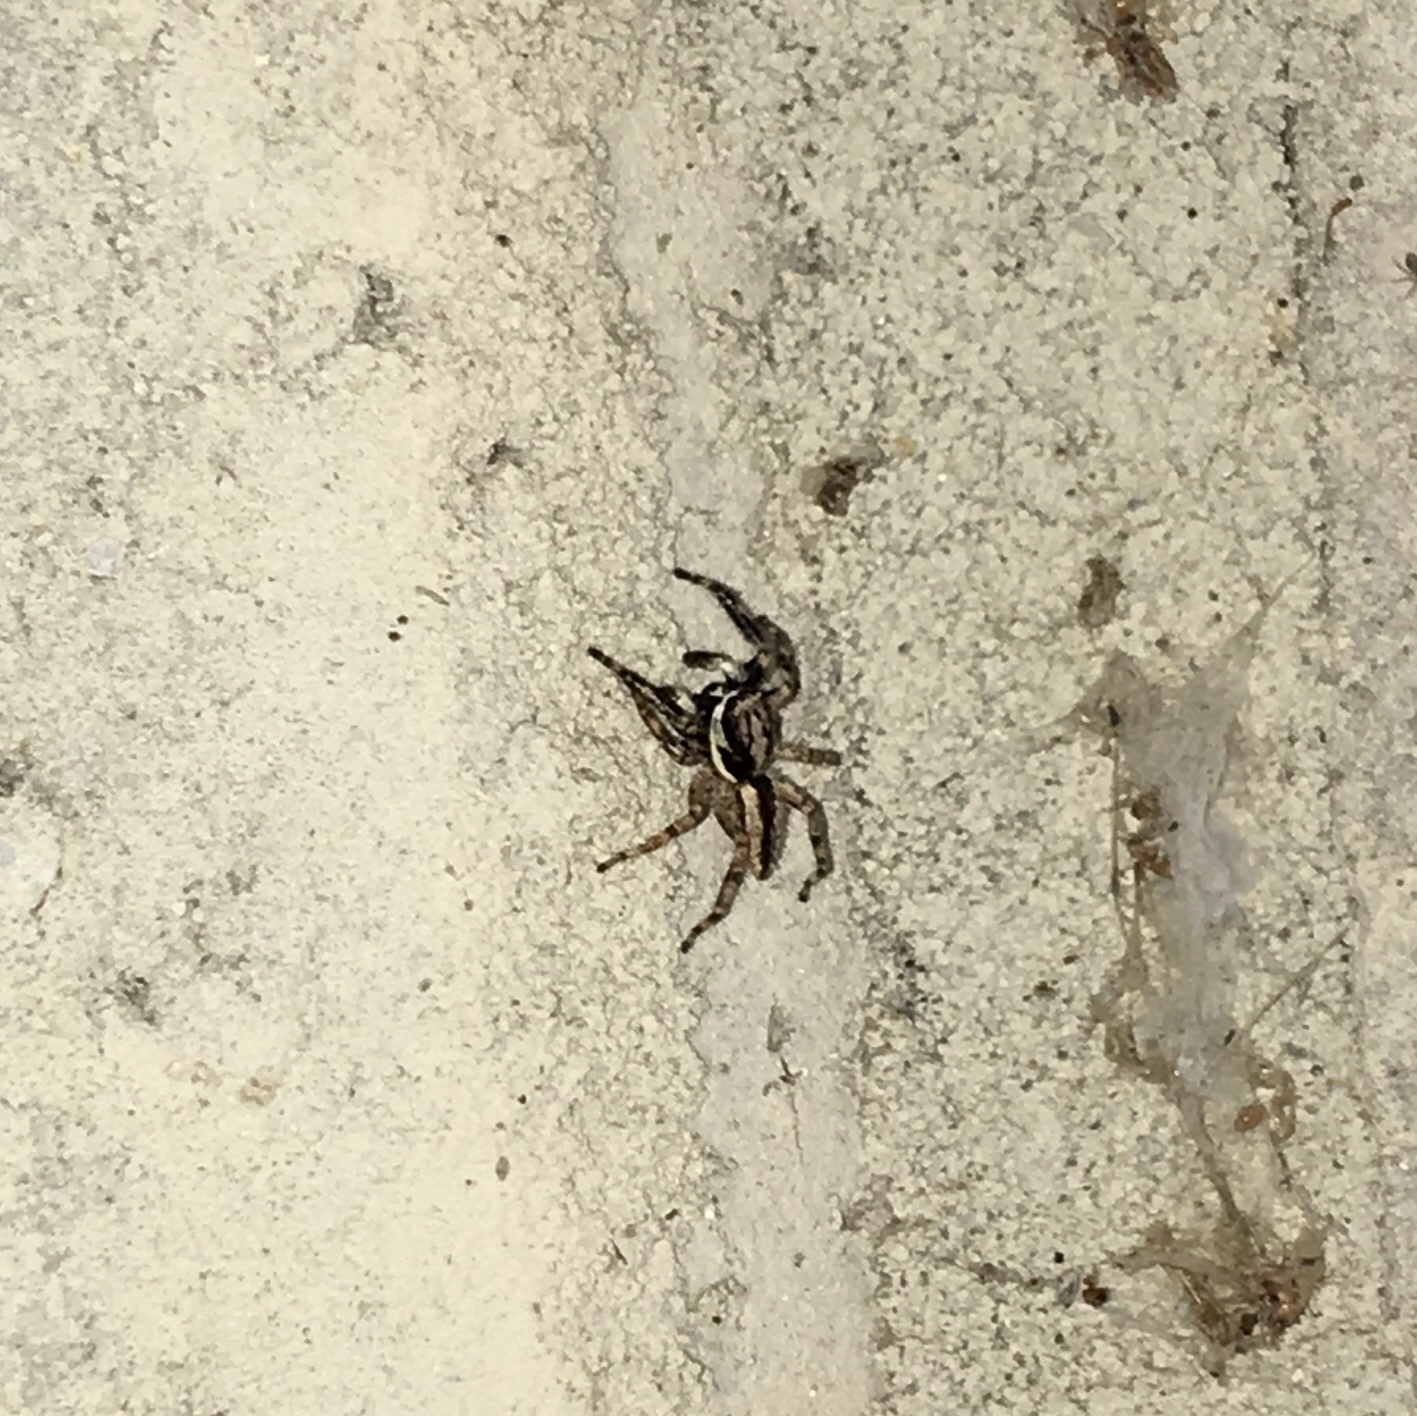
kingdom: Animalia
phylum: Arthropoda
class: Arachnida
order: Araneae
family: Salticidae
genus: Menemerus
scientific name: Menemerus bivittatus
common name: Gray wall jumper
